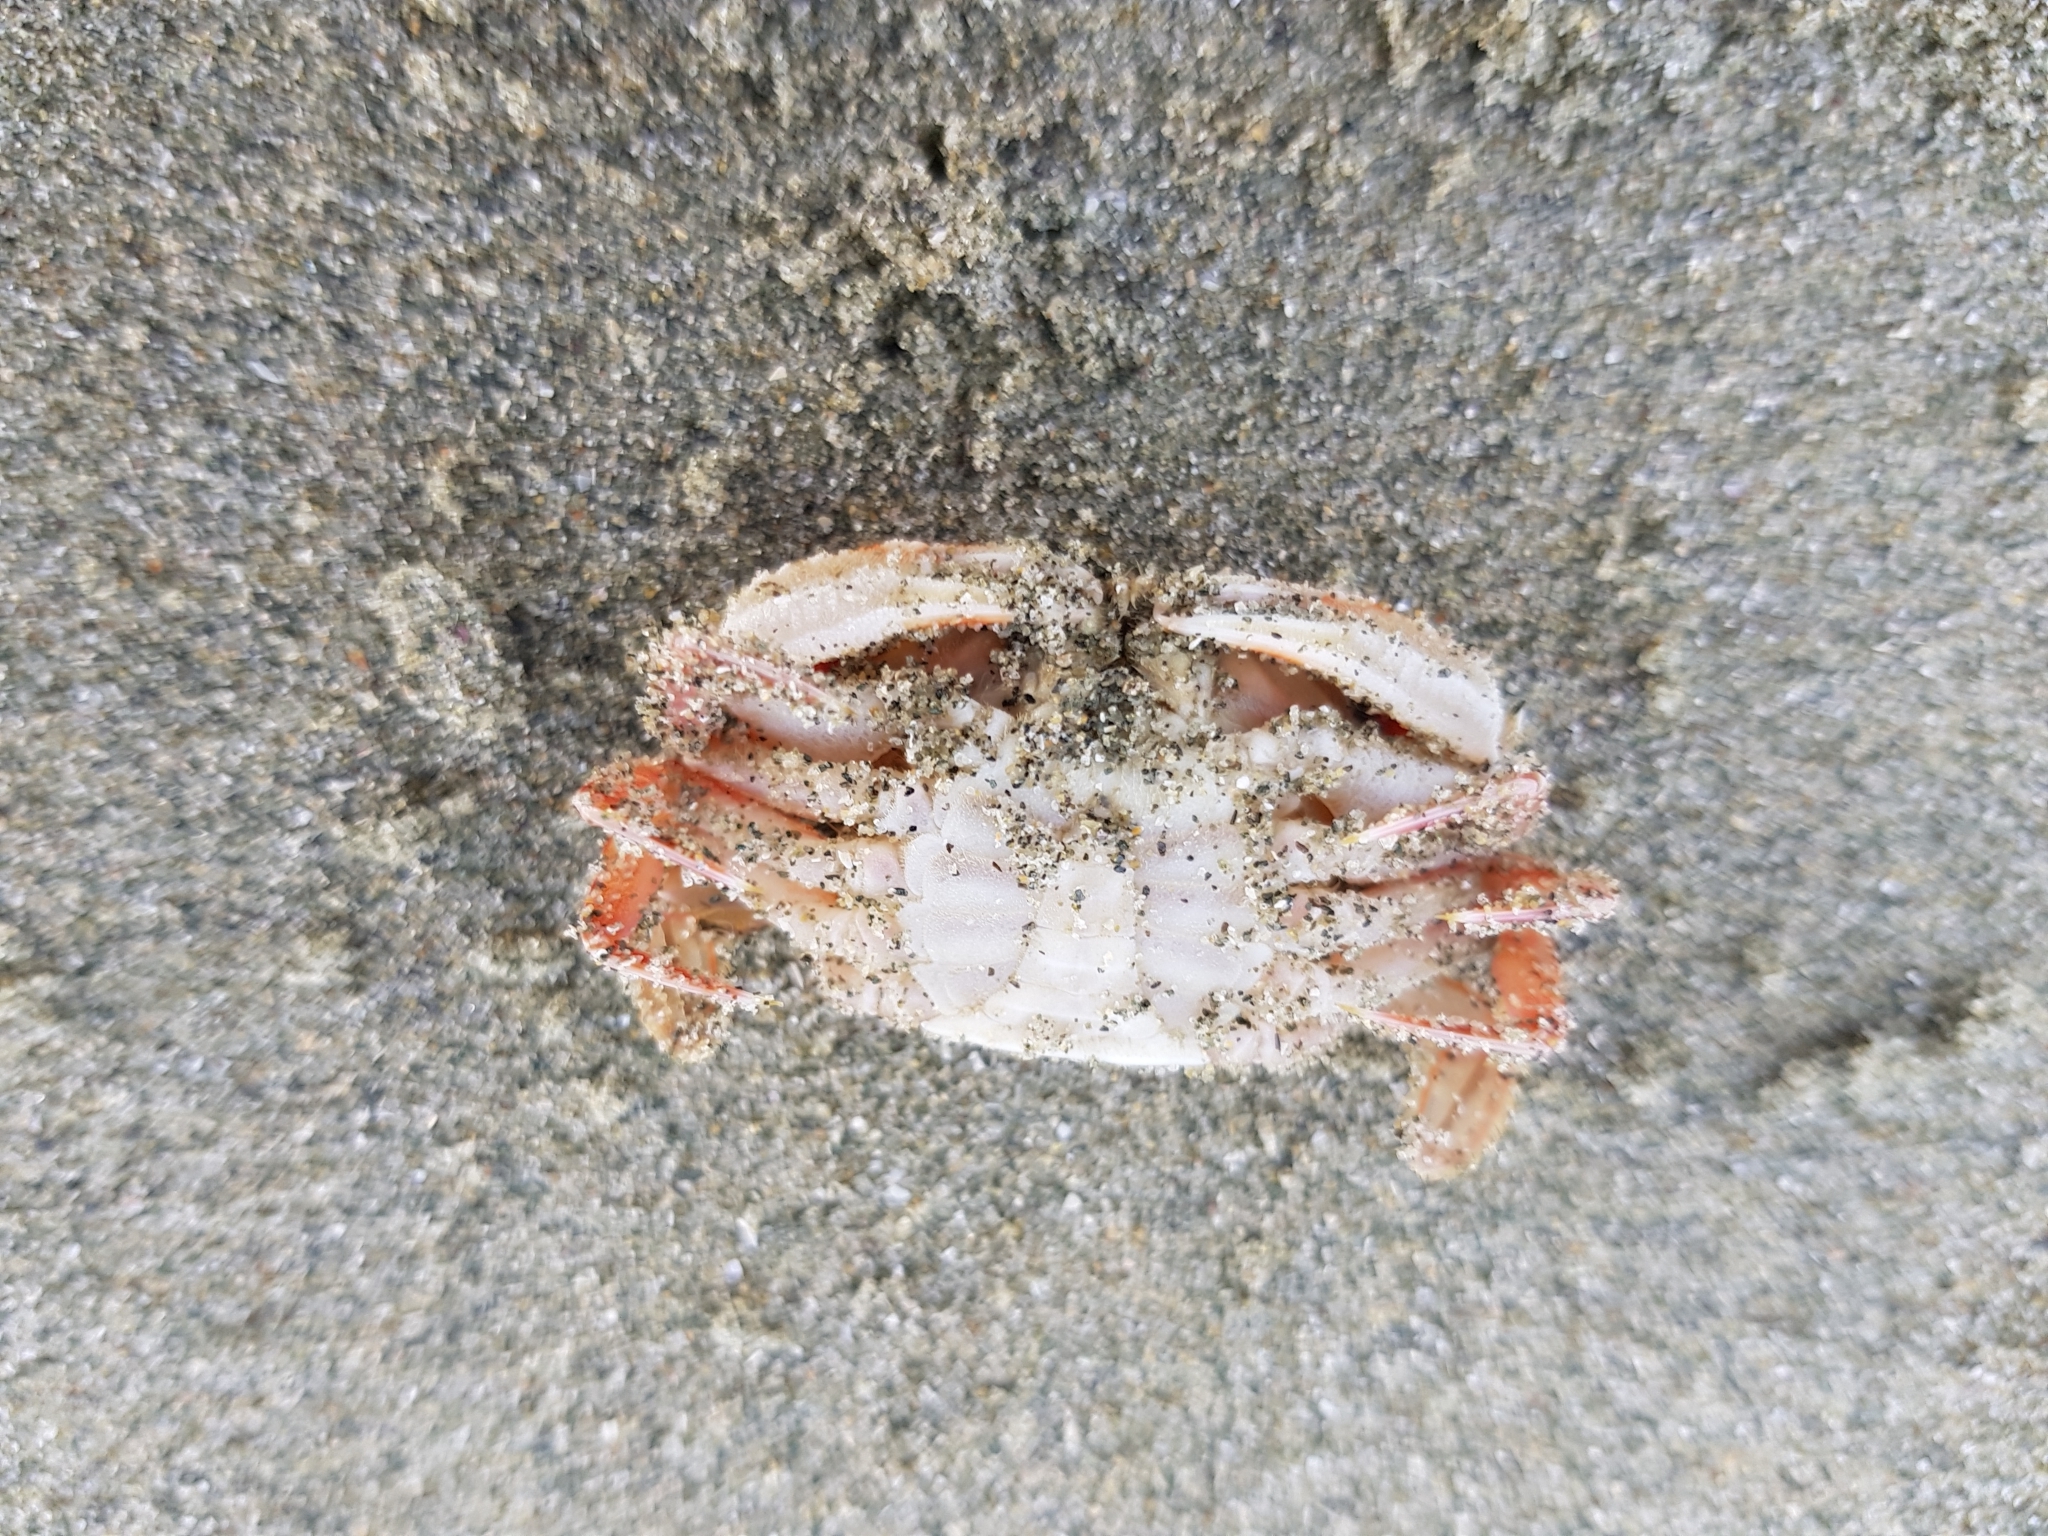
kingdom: Animalia
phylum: Arthropoda
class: Malacostraca
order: Decapoda
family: Geryonidae
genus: Nectocarcinus
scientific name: Nectocarcinus antarcticus
